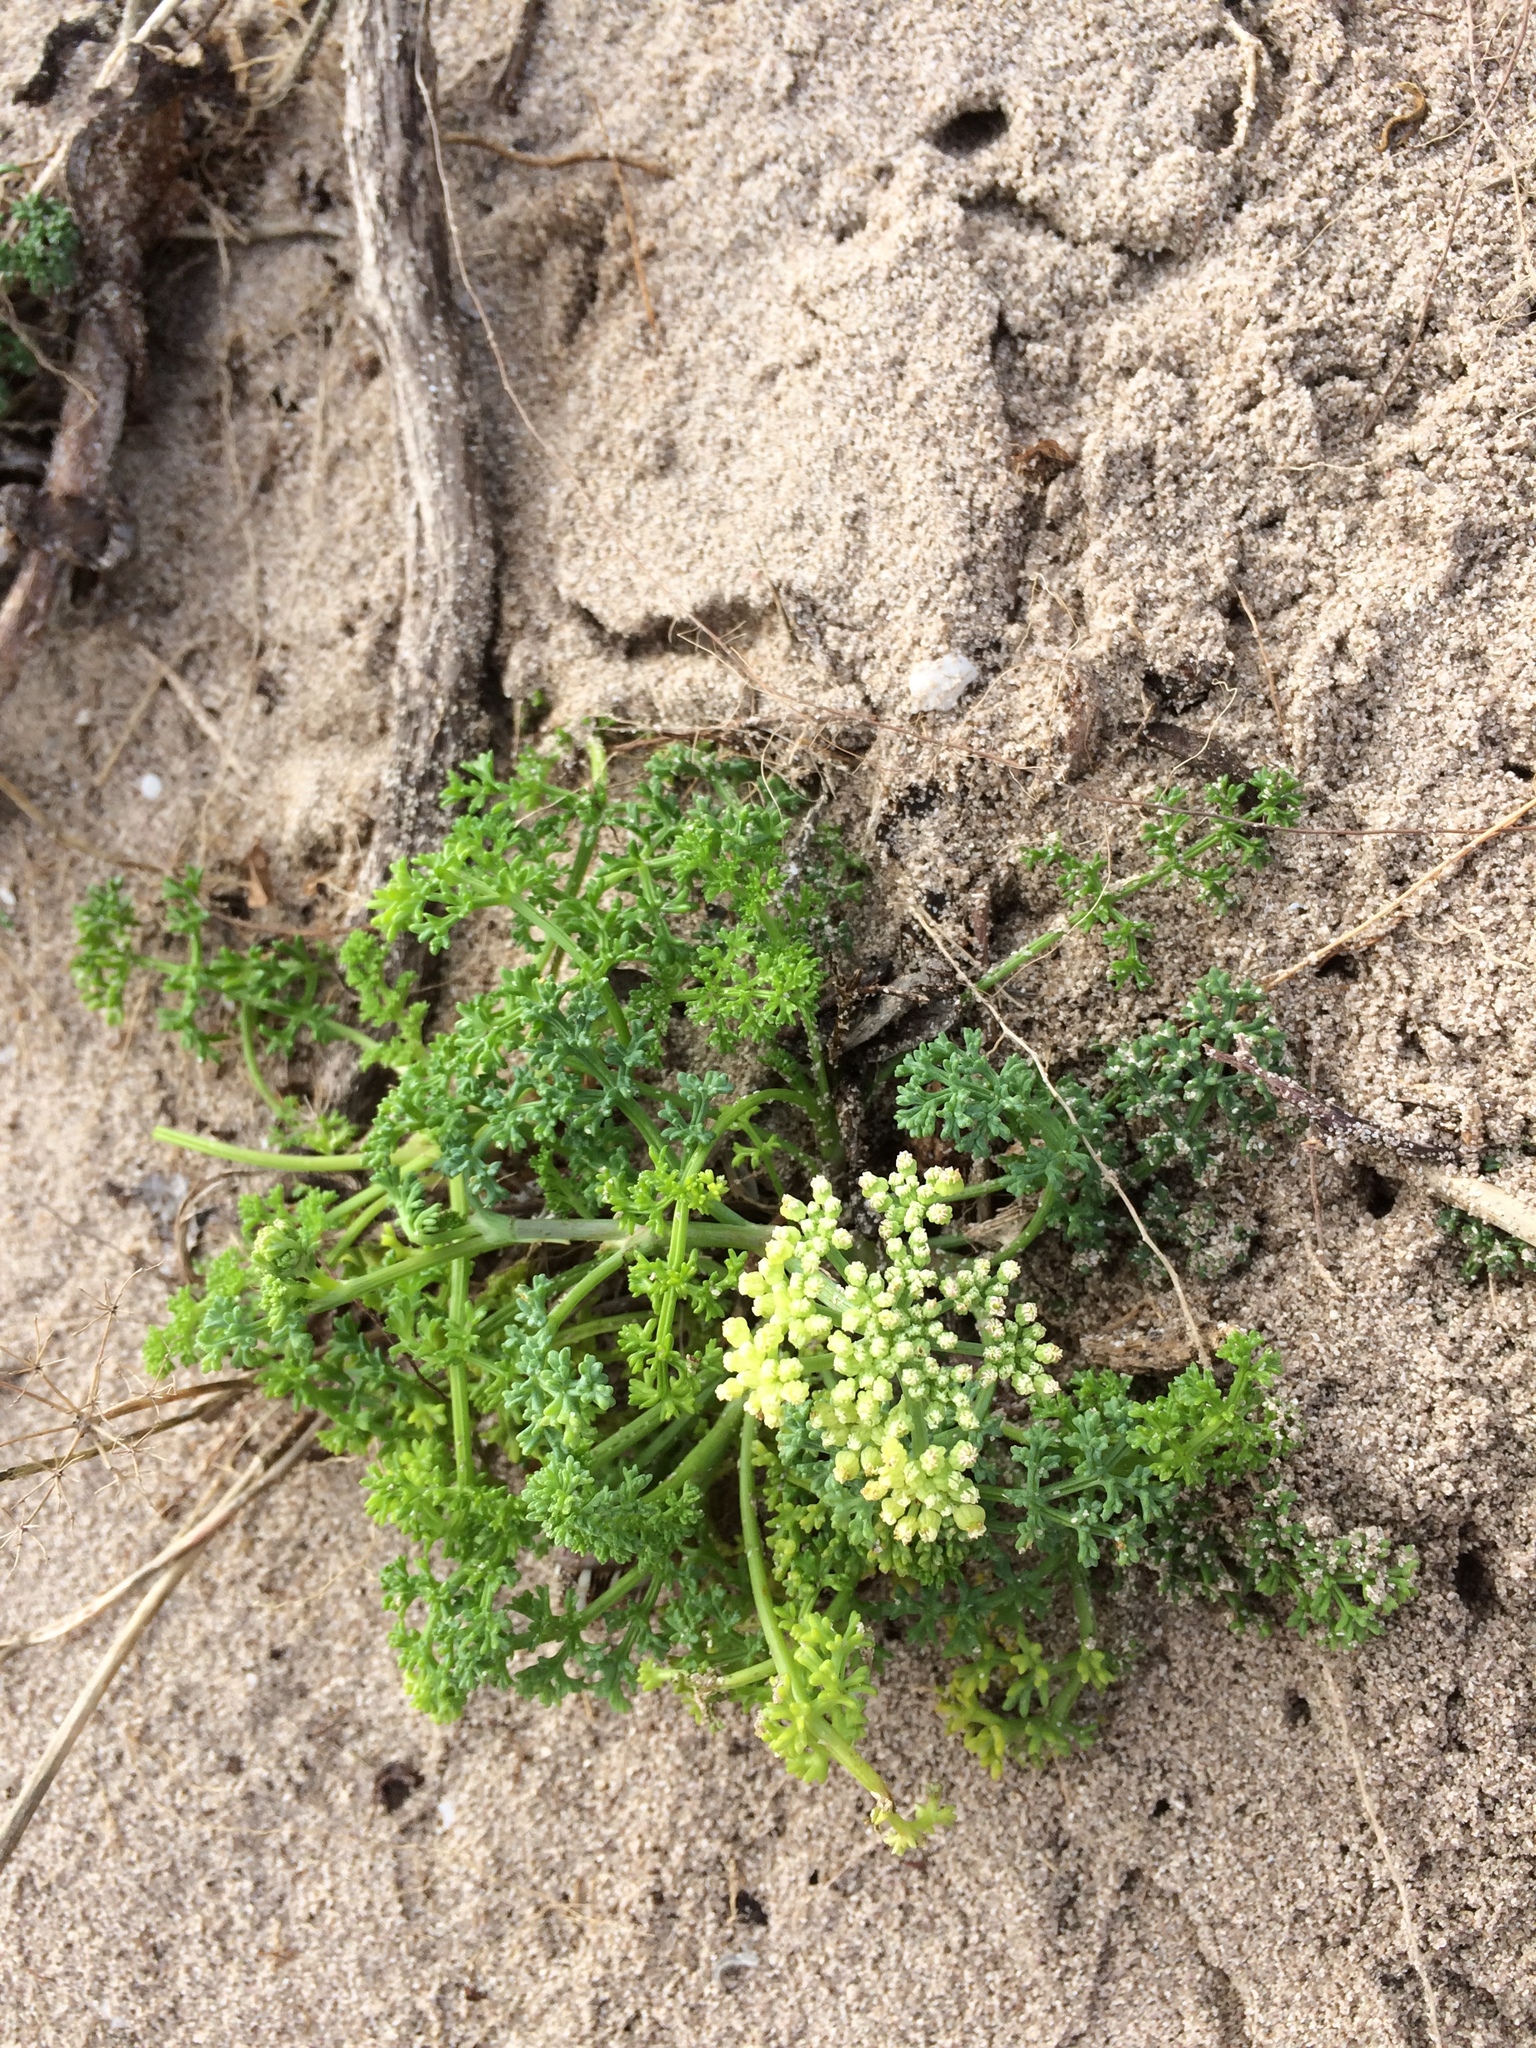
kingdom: Plantae
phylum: Tracheophyta
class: Magnoliopsida
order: Apiales
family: Apiaceae
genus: Dasispermum
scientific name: Dasispermum suffruticosum
